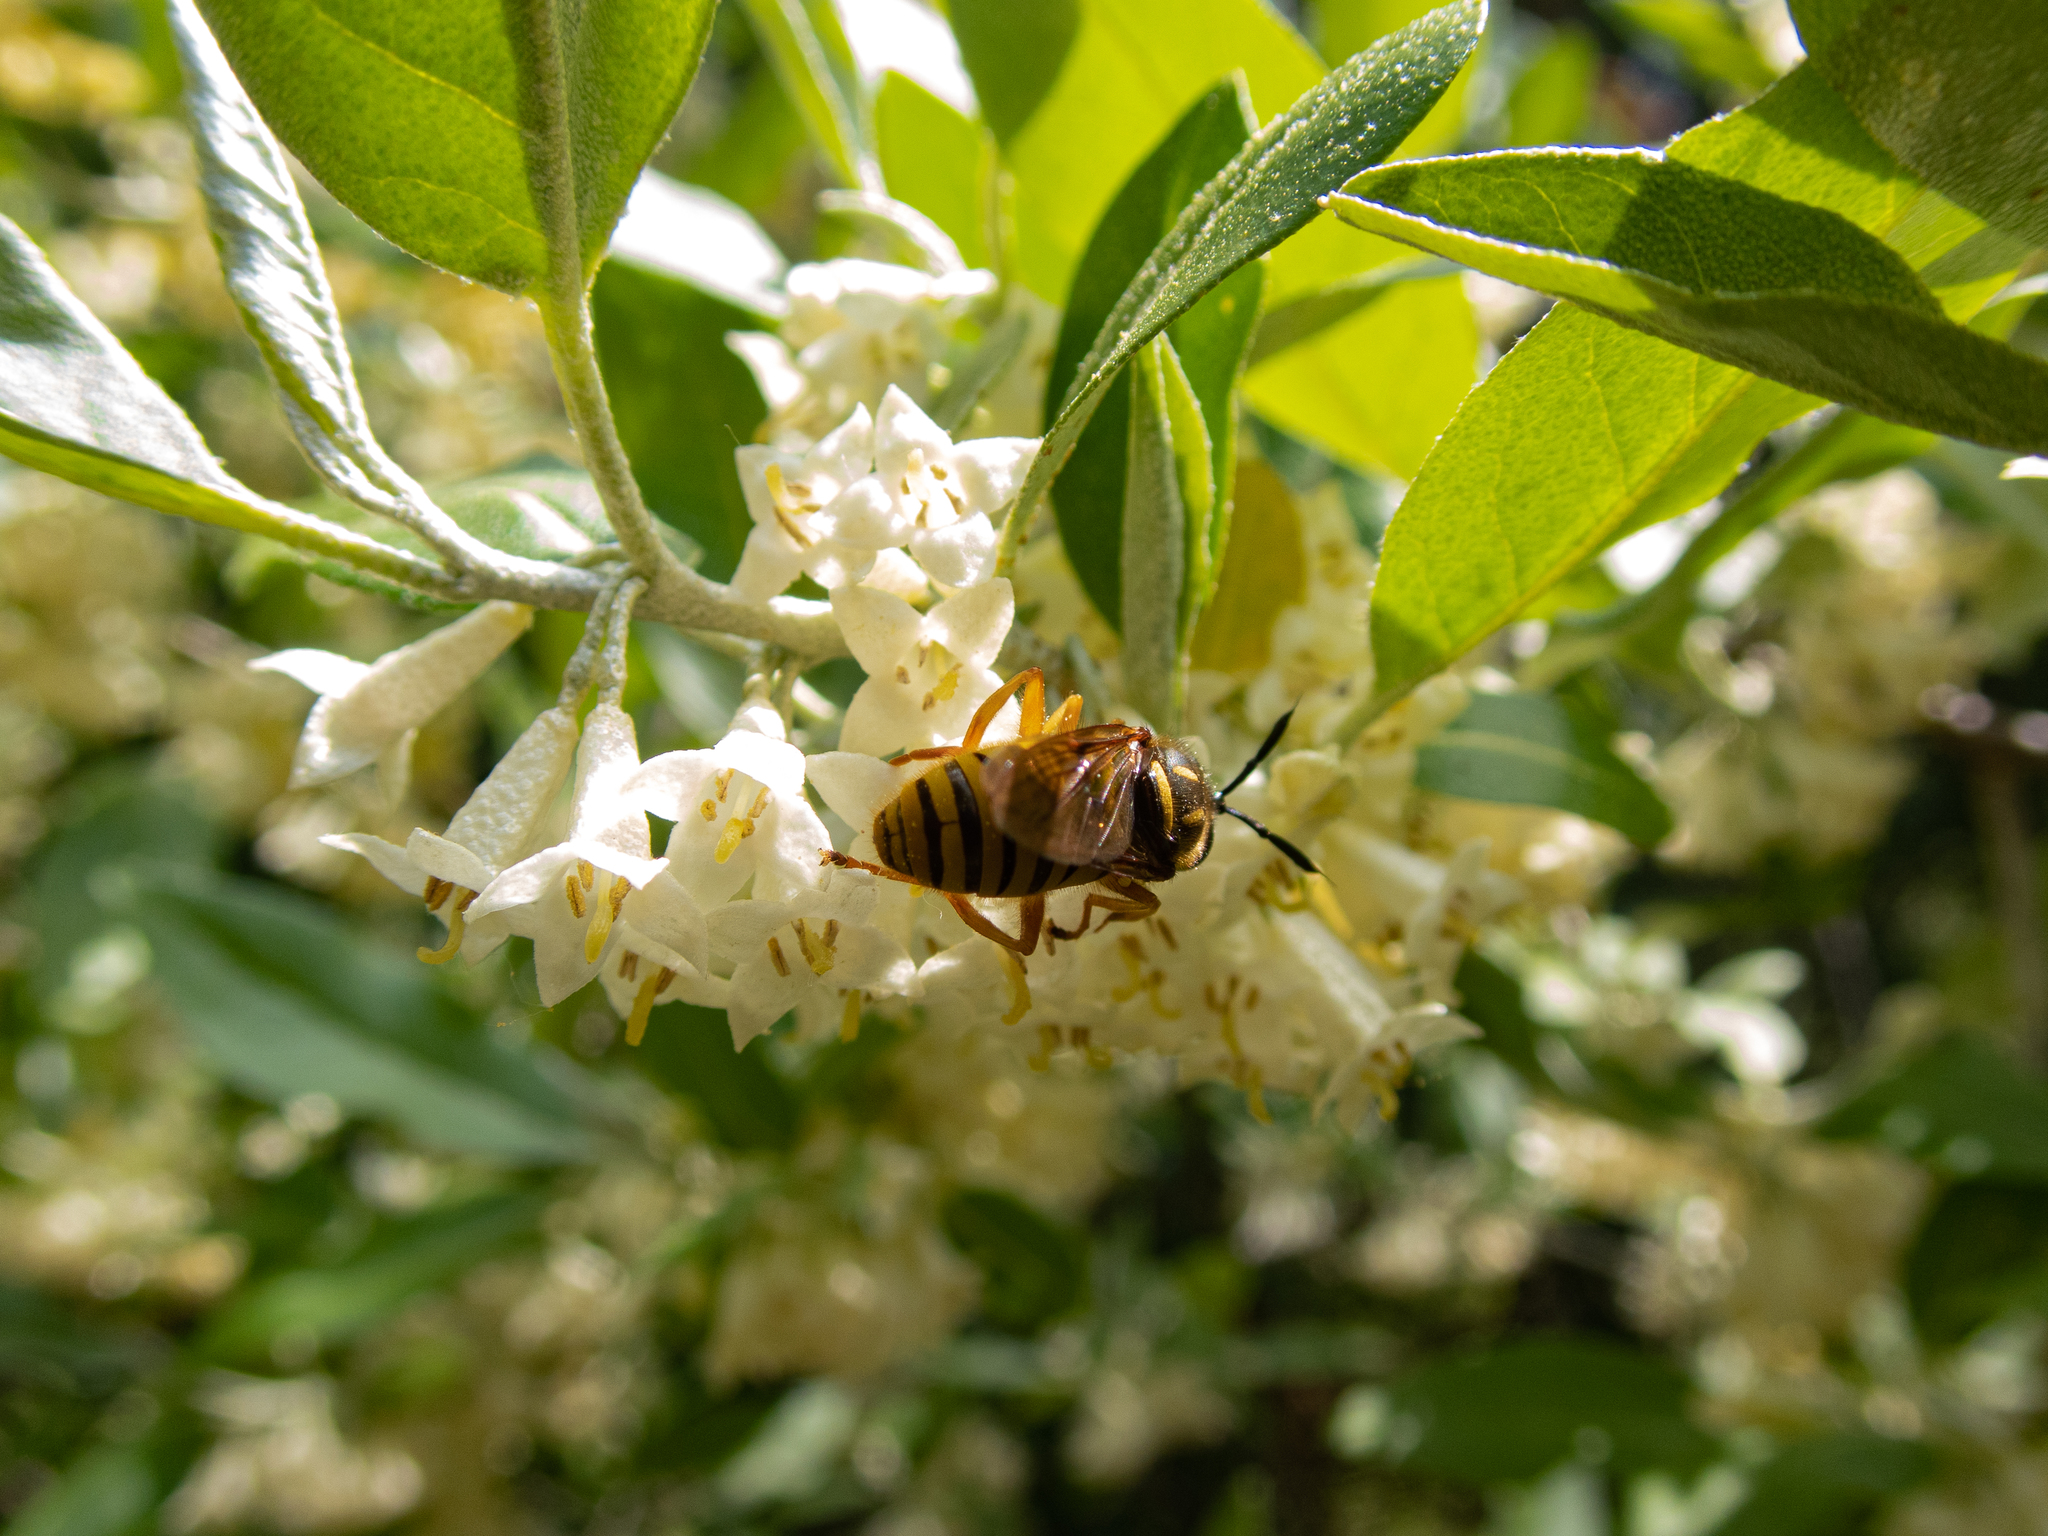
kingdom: Animalia
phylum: Arthropoda
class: Insecta
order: Diptera
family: Syrphidae
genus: Sphecomyia
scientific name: Sphecomyia vittata
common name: Long-horned yellowjacket fly
